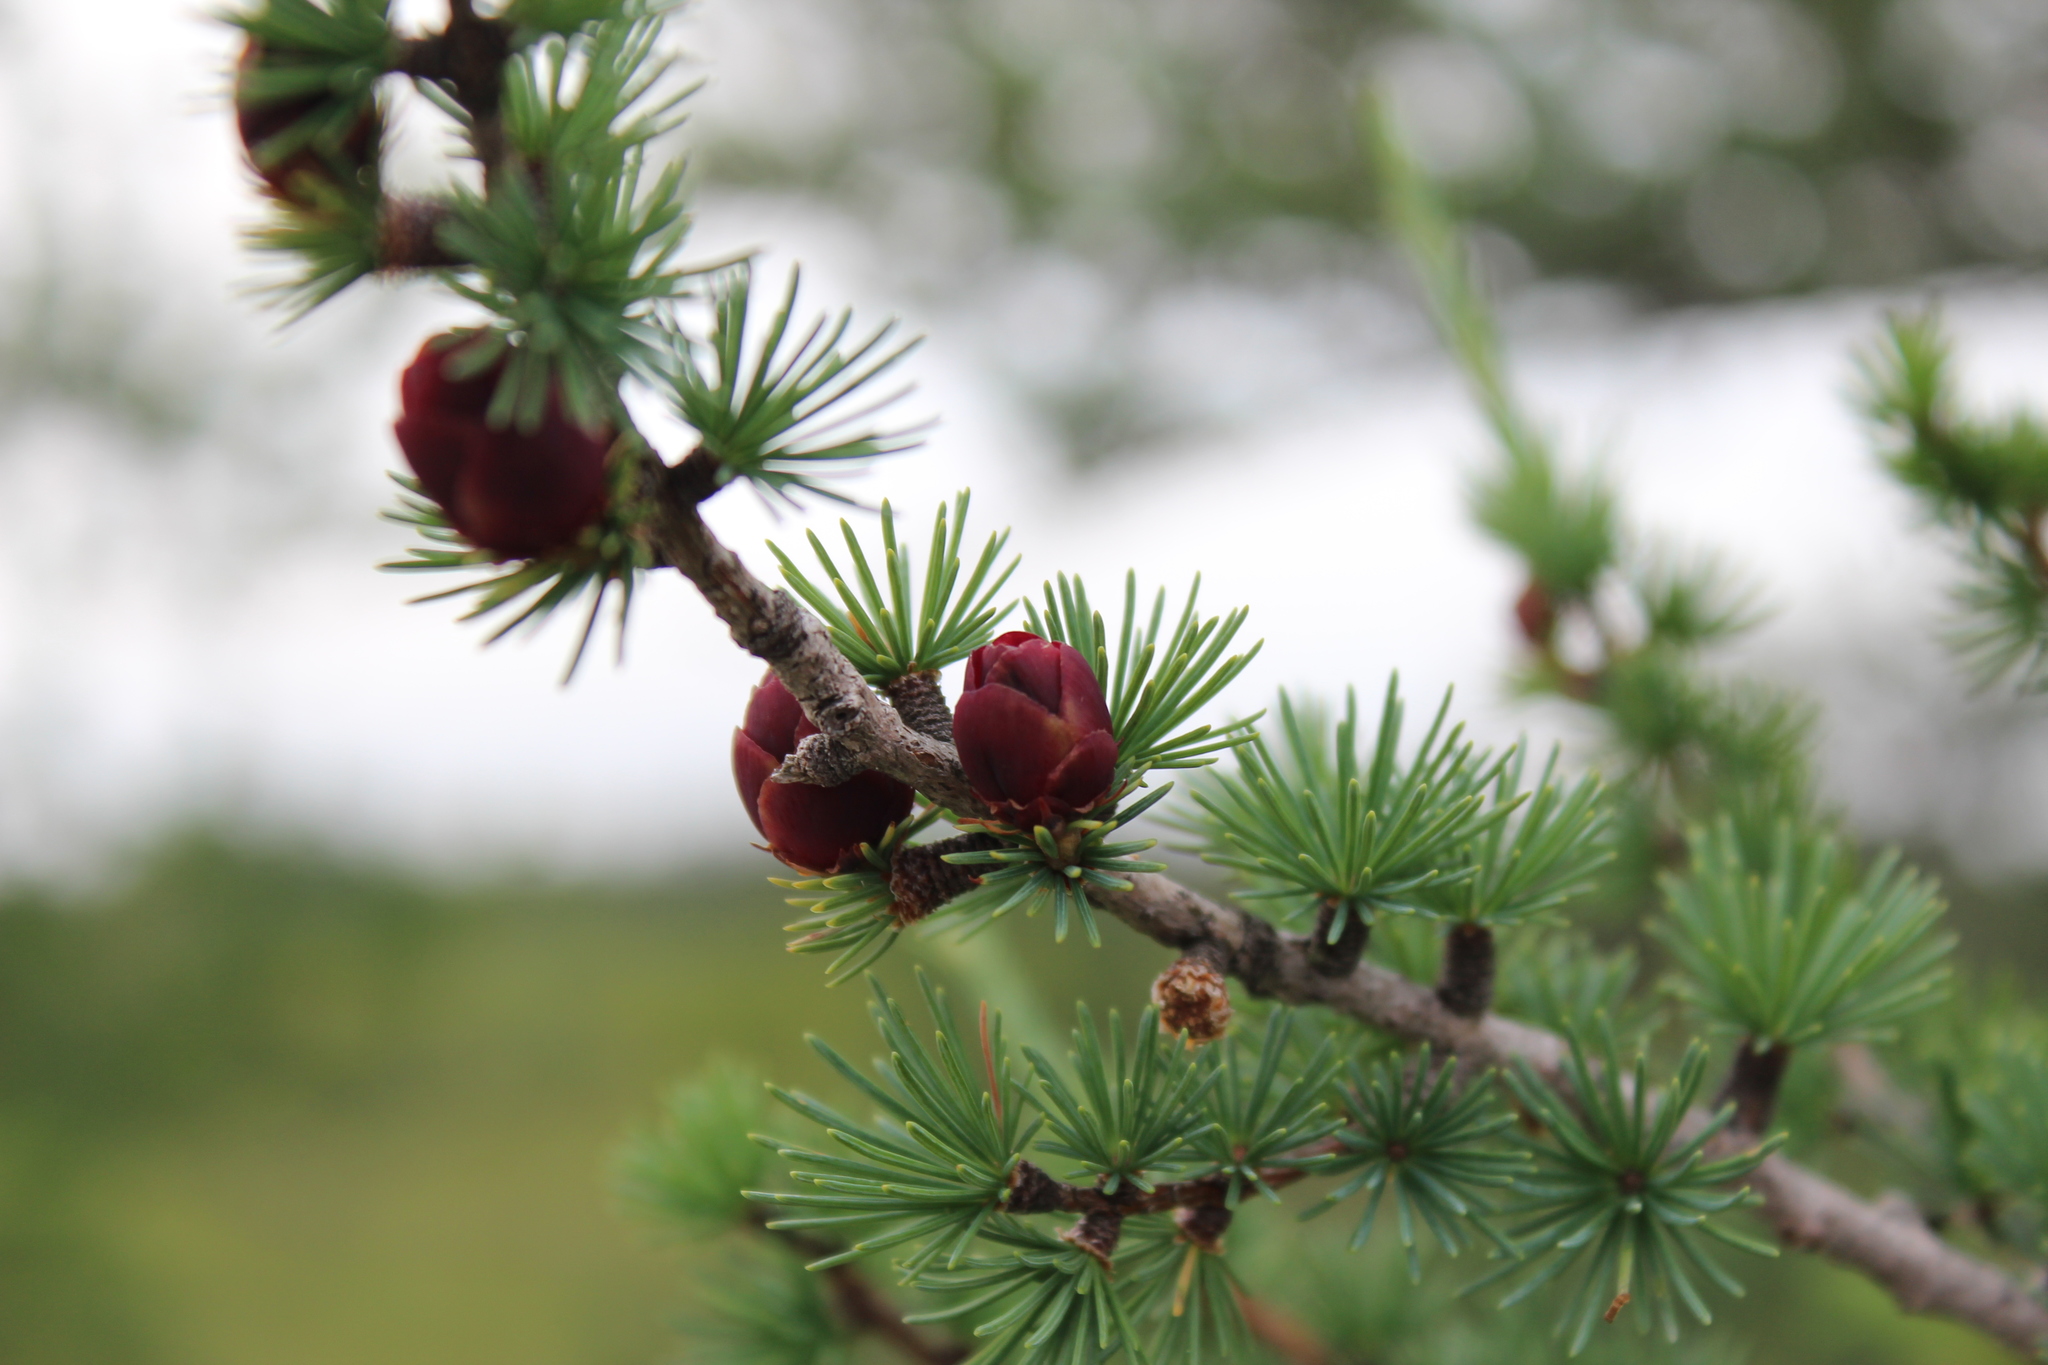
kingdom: Plantae
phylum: Tracheophyta
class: Pinopsida
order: Pinales
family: Pinaceae
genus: Larix
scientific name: Larix laricina
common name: American larch
